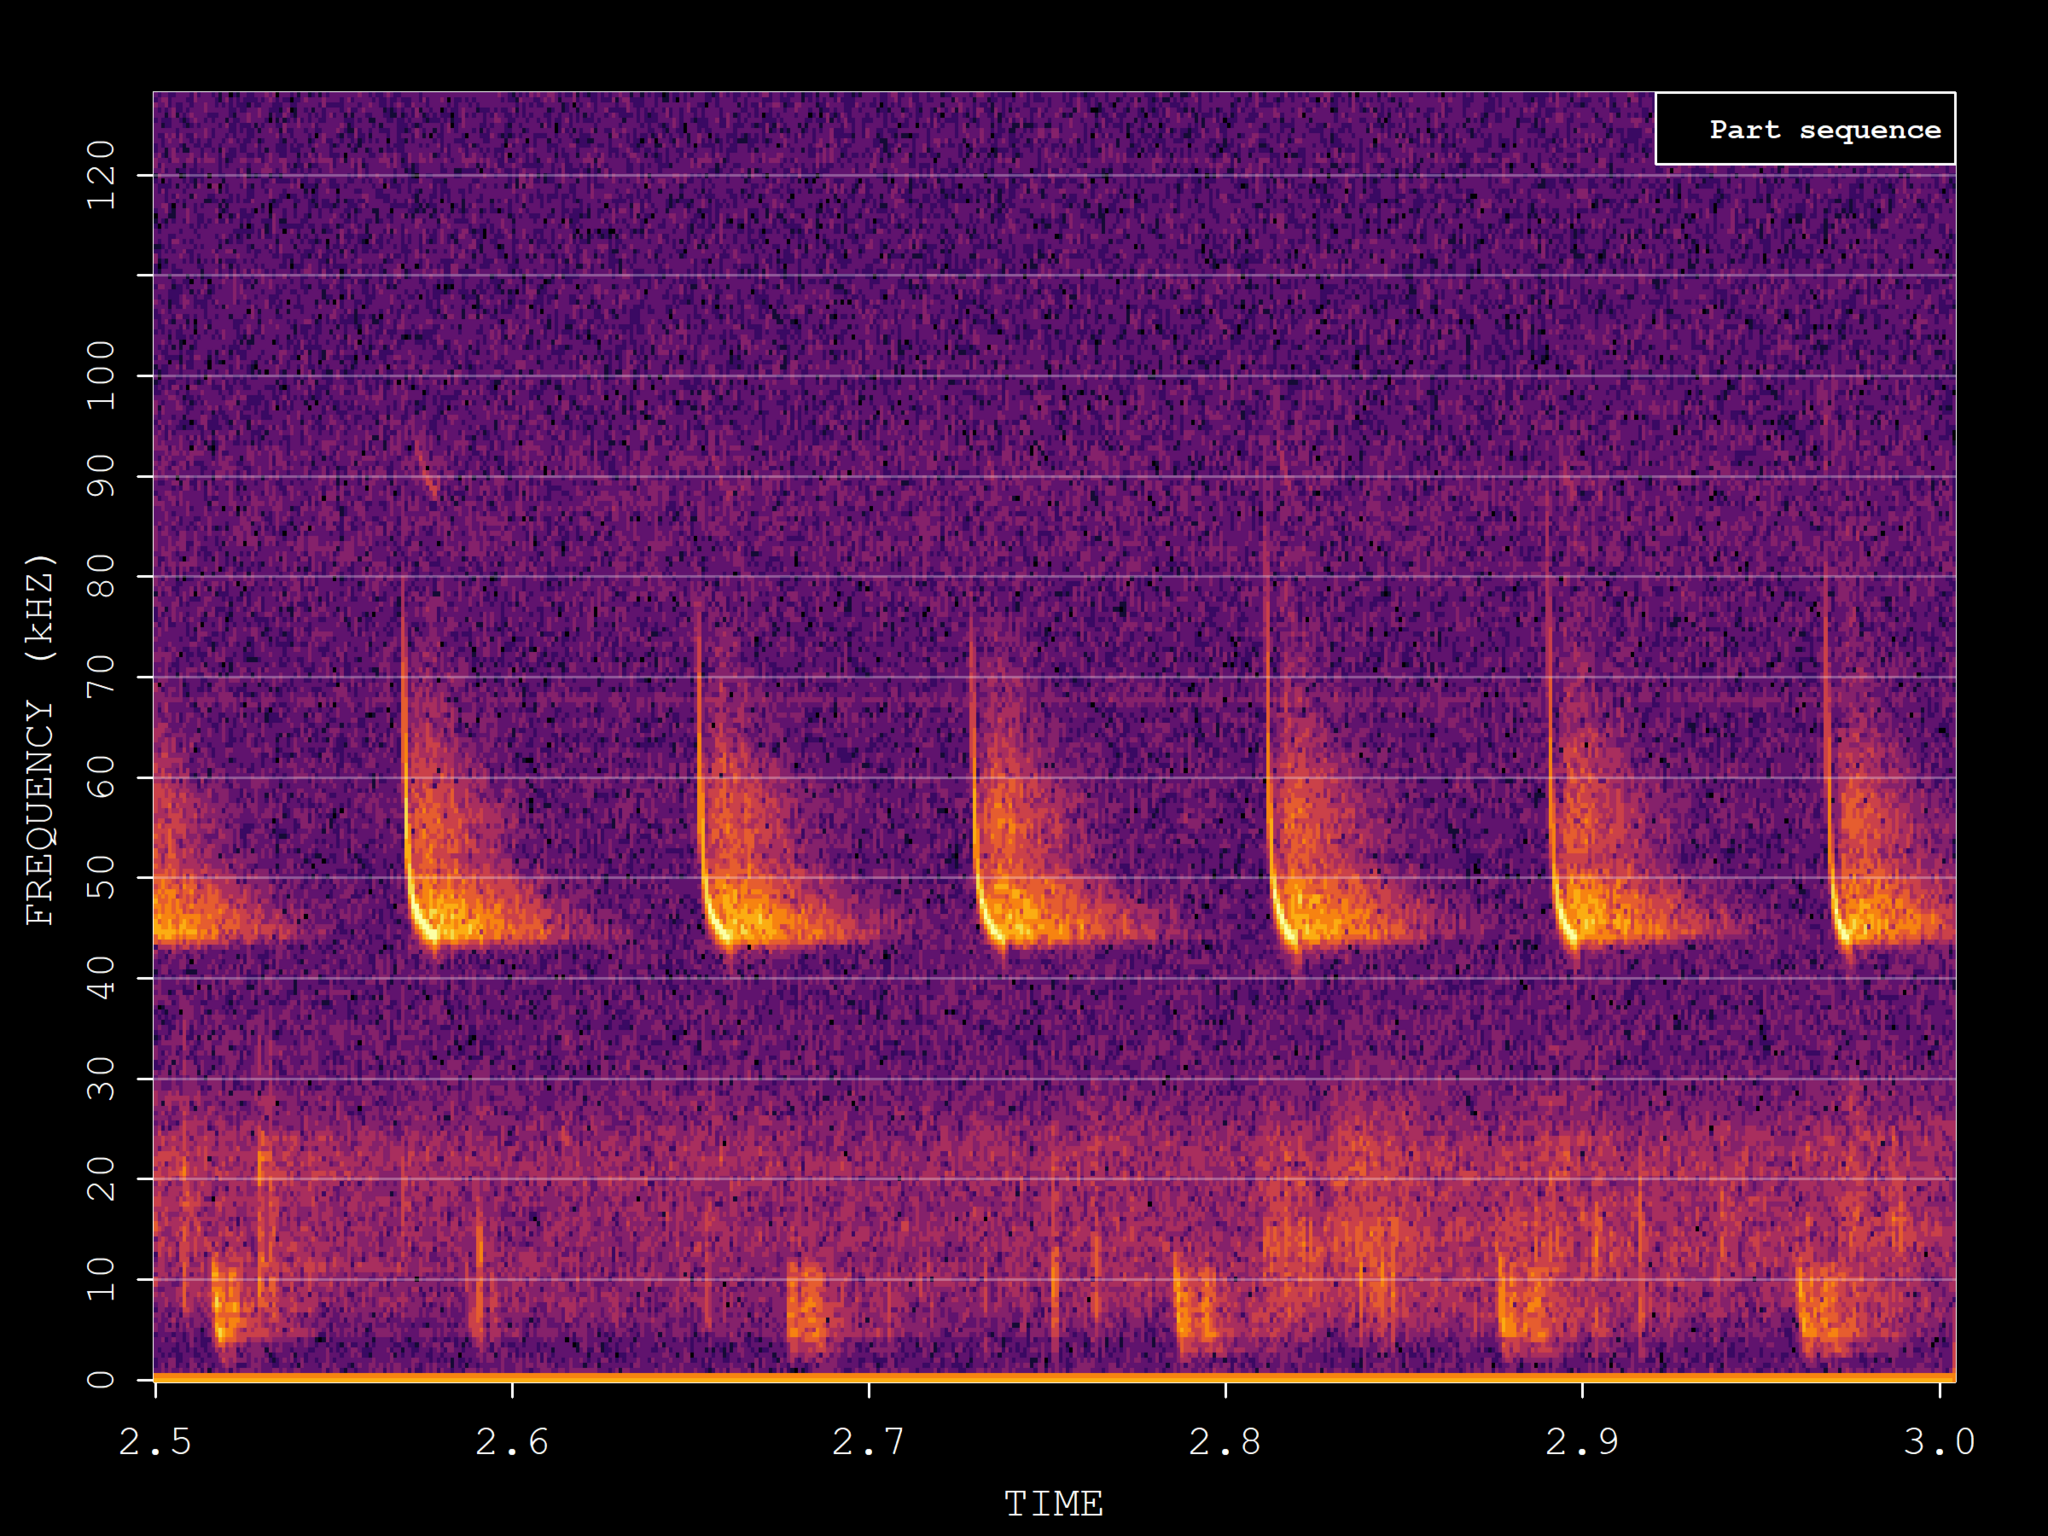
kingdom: Animalia
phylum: Chordata
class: Mammalia
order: Chiroptera
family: Vespertilionidae
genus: Pipistrellus
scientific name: Pipistrellus pipistrellus
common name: Common pipistrelle
